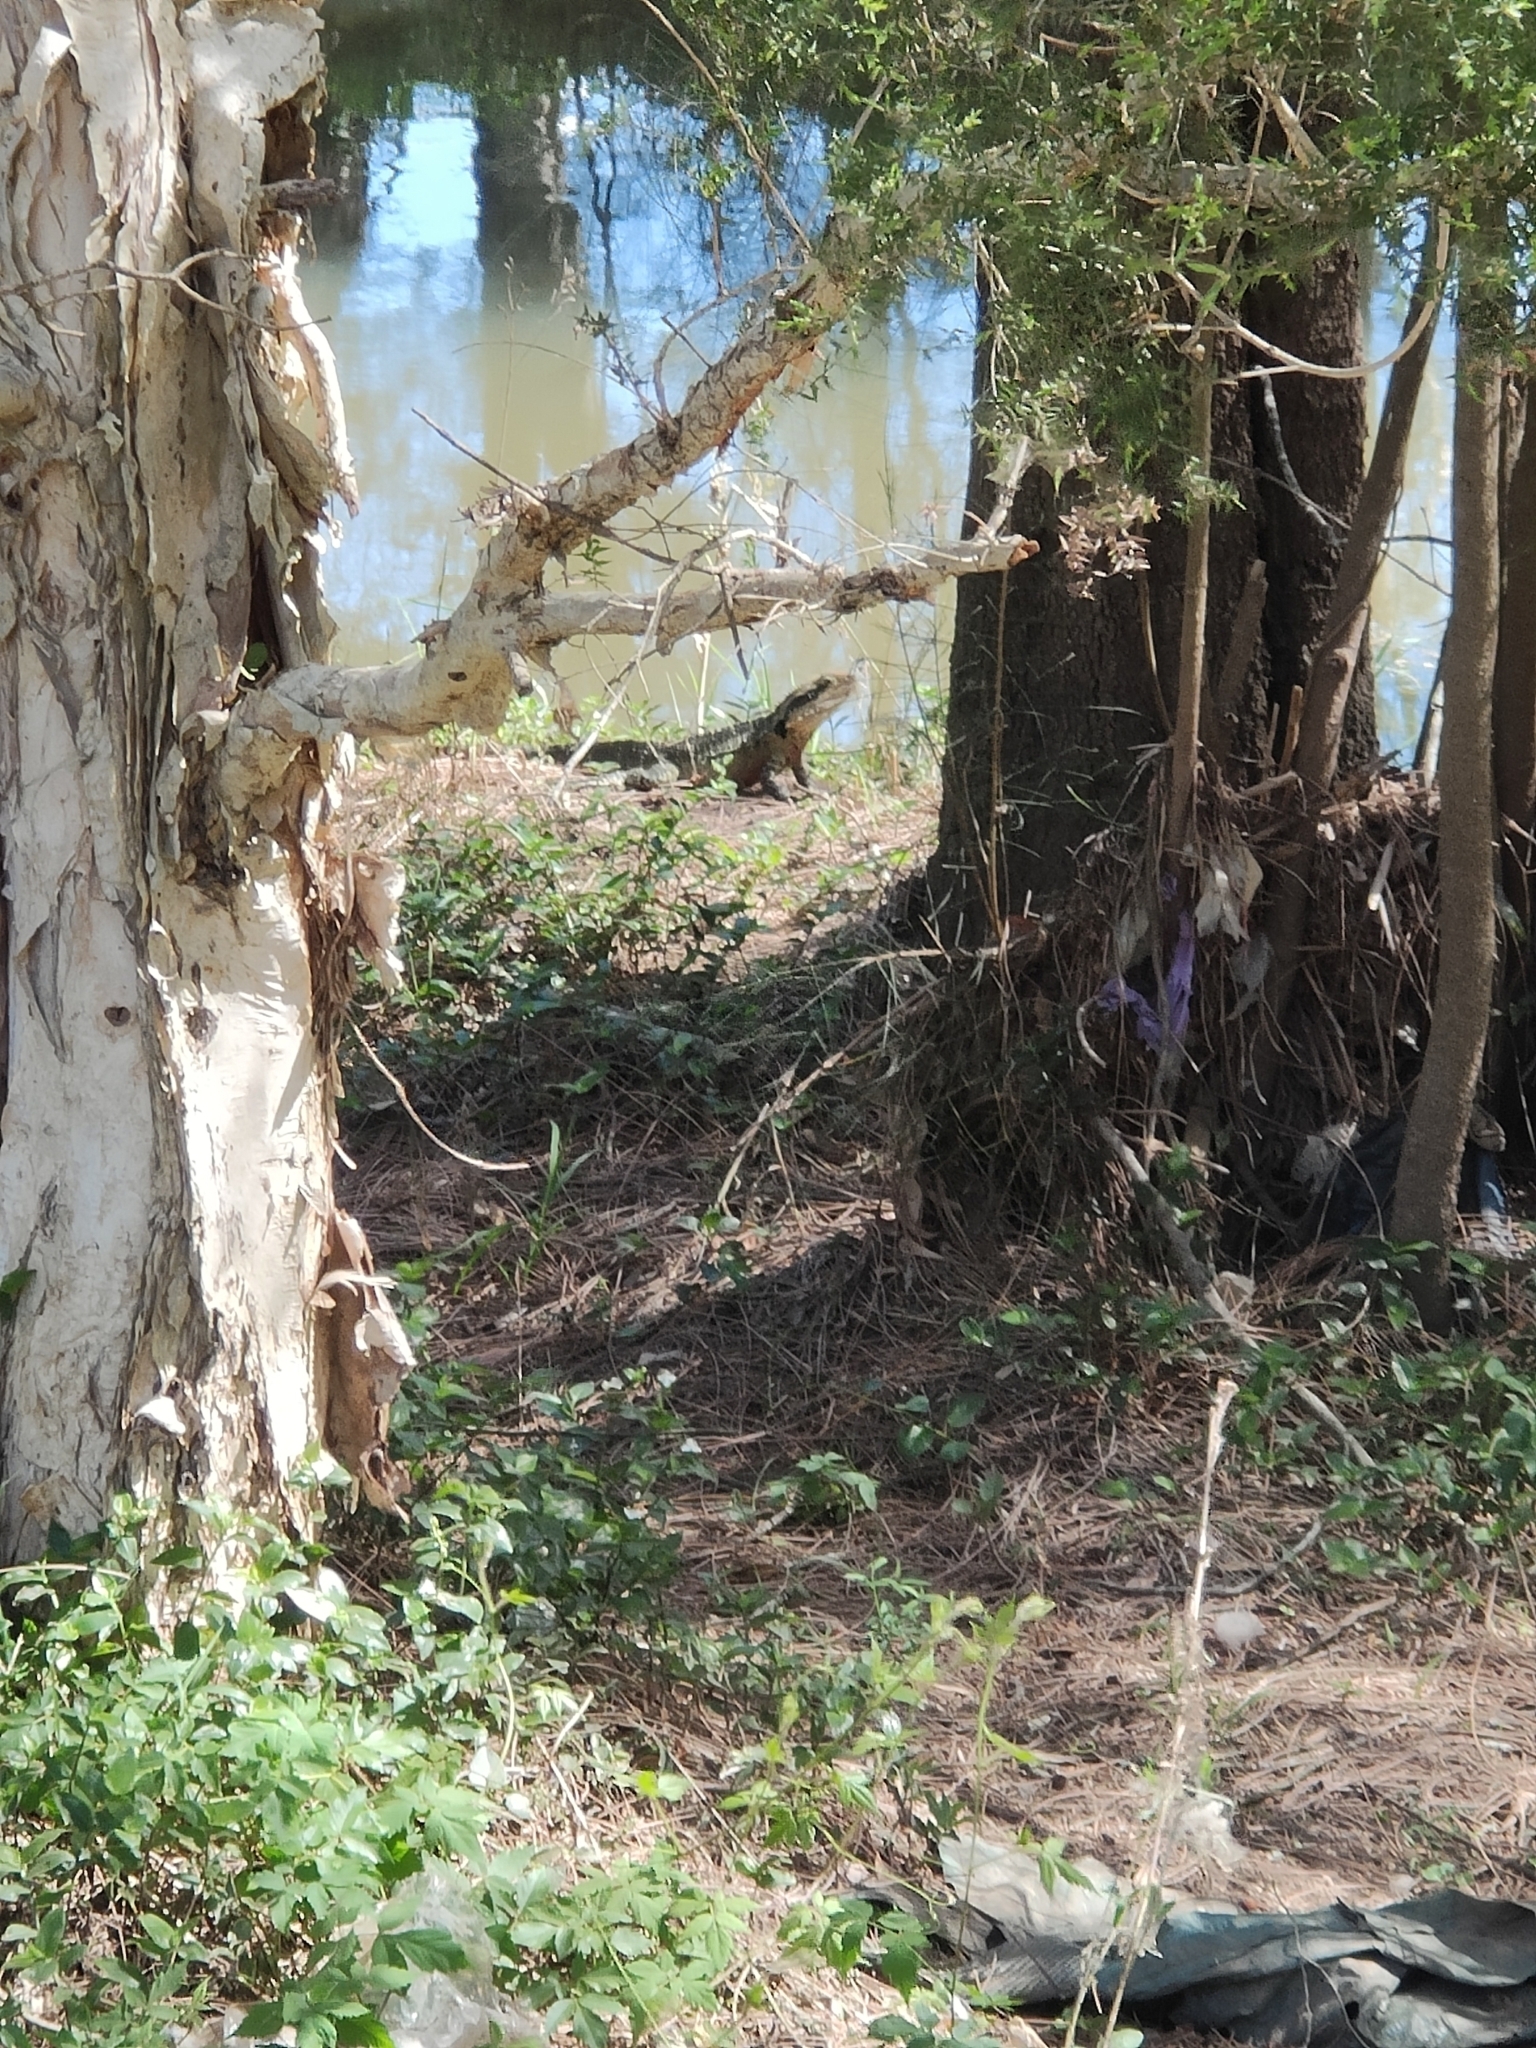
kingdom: Animalia
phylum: Chordata
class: Squamata
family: Agamidae
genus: Intellagama
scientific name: Intellagama lesueurii
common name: Eastern water dragon
